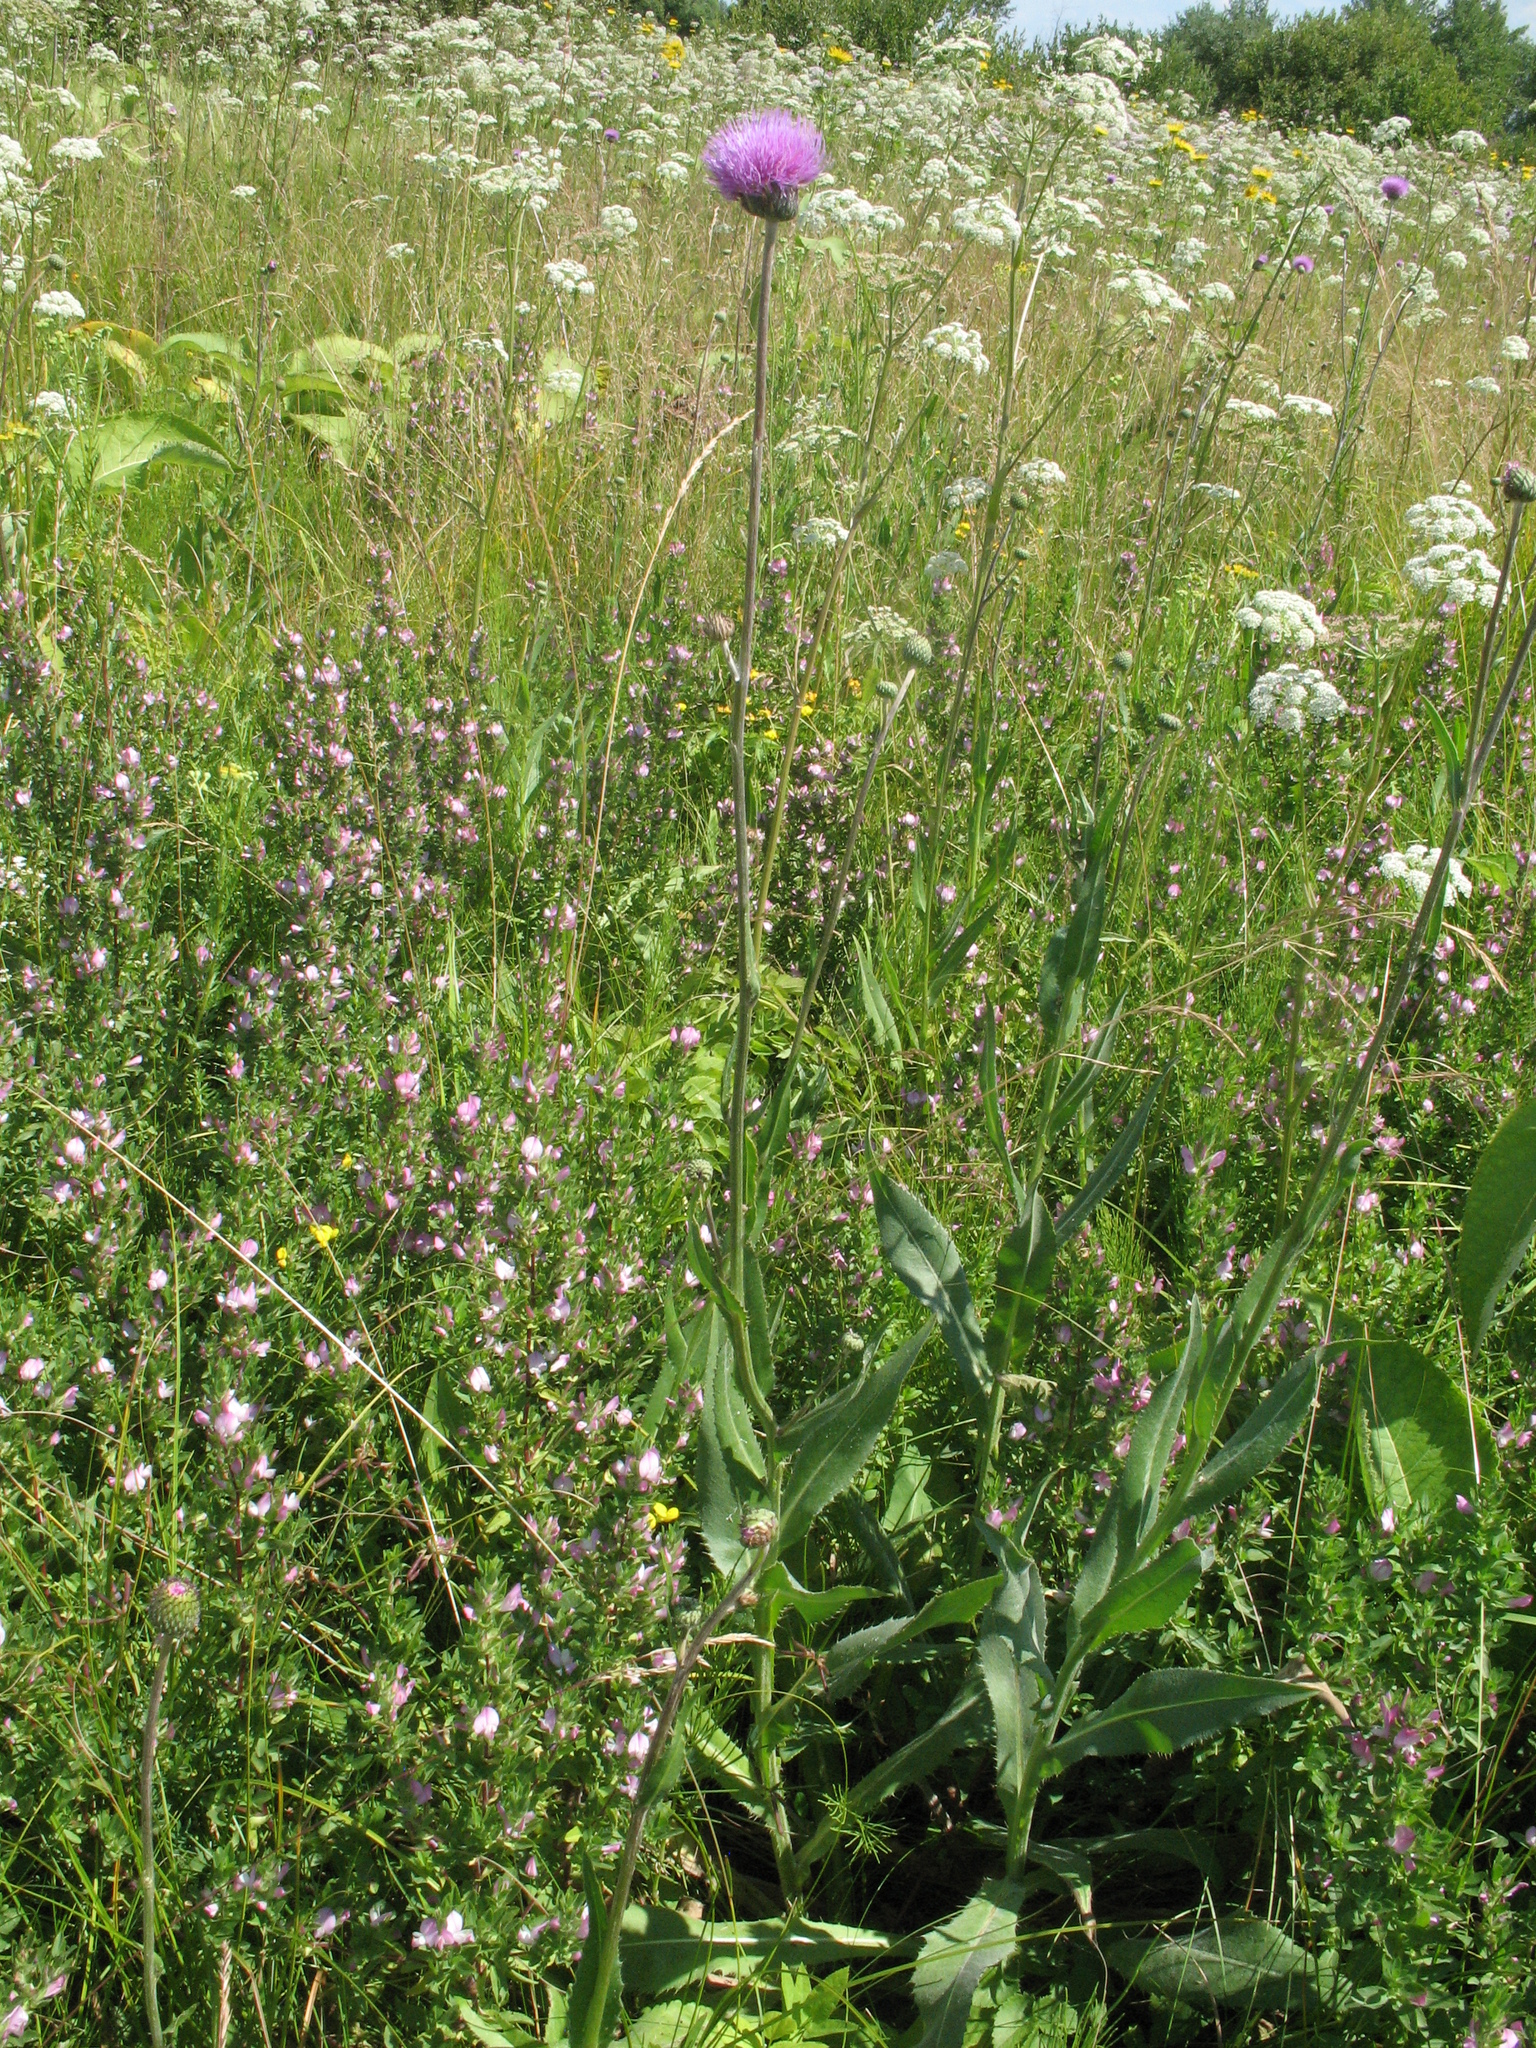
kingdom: Plantae
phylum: Tracheophyta
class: Magnoliopsida
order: Asterales
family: Asteraceae
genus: Cirsium
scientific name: Cirsium canum
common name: Queen anne's thistle
